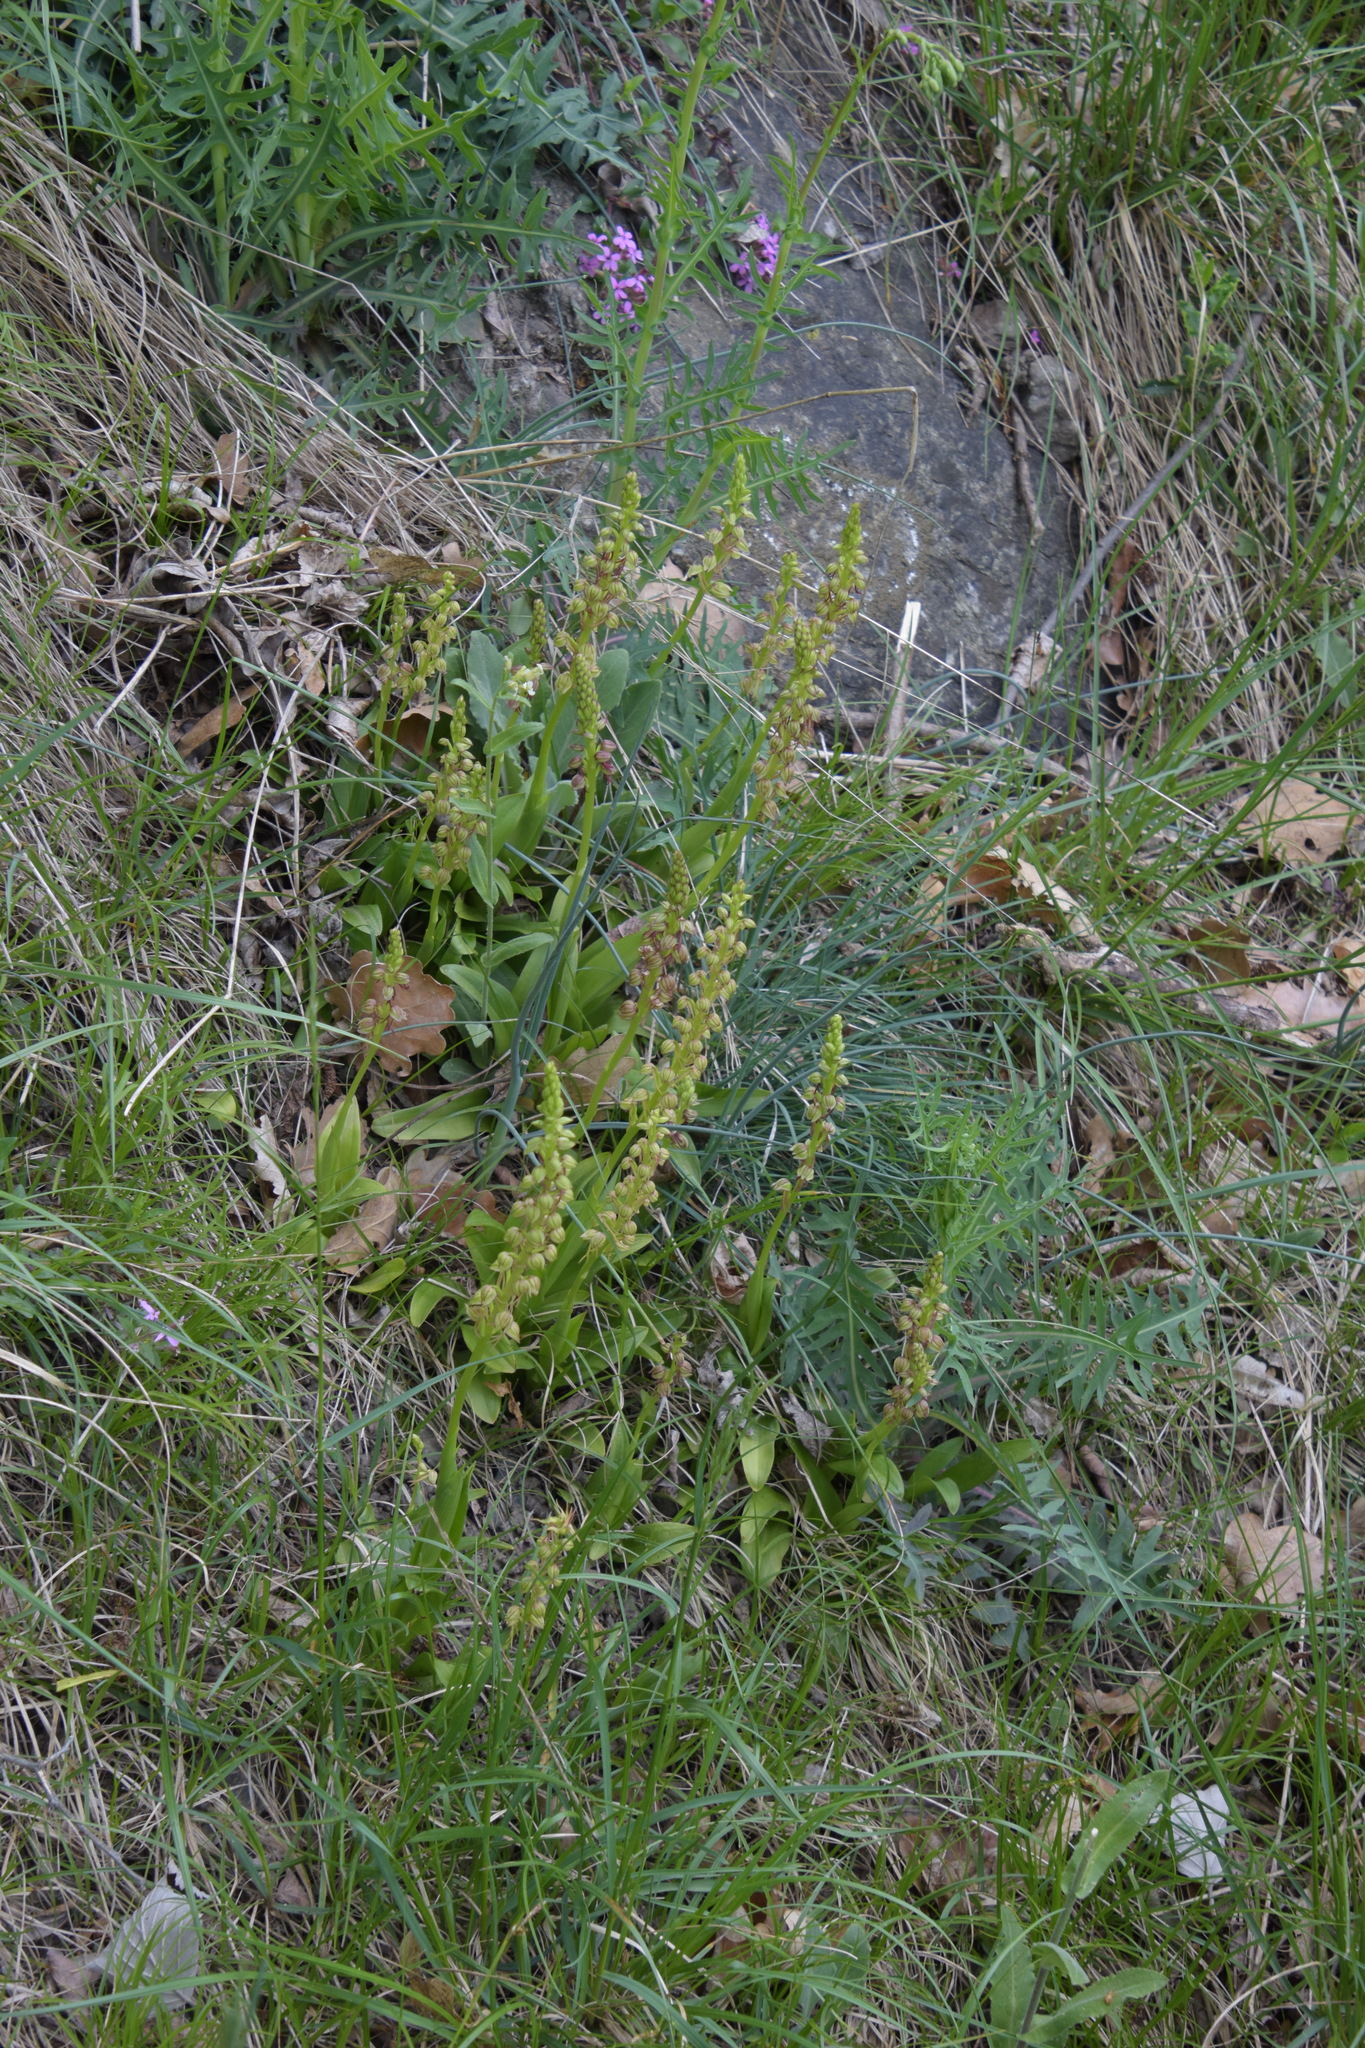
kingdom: Plantae
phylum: Tracheophyta
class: Liliopsida
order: Asparagales
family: Orchidaceae
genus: Orchis
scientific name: Orchis anthropophora
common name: Man orchid
